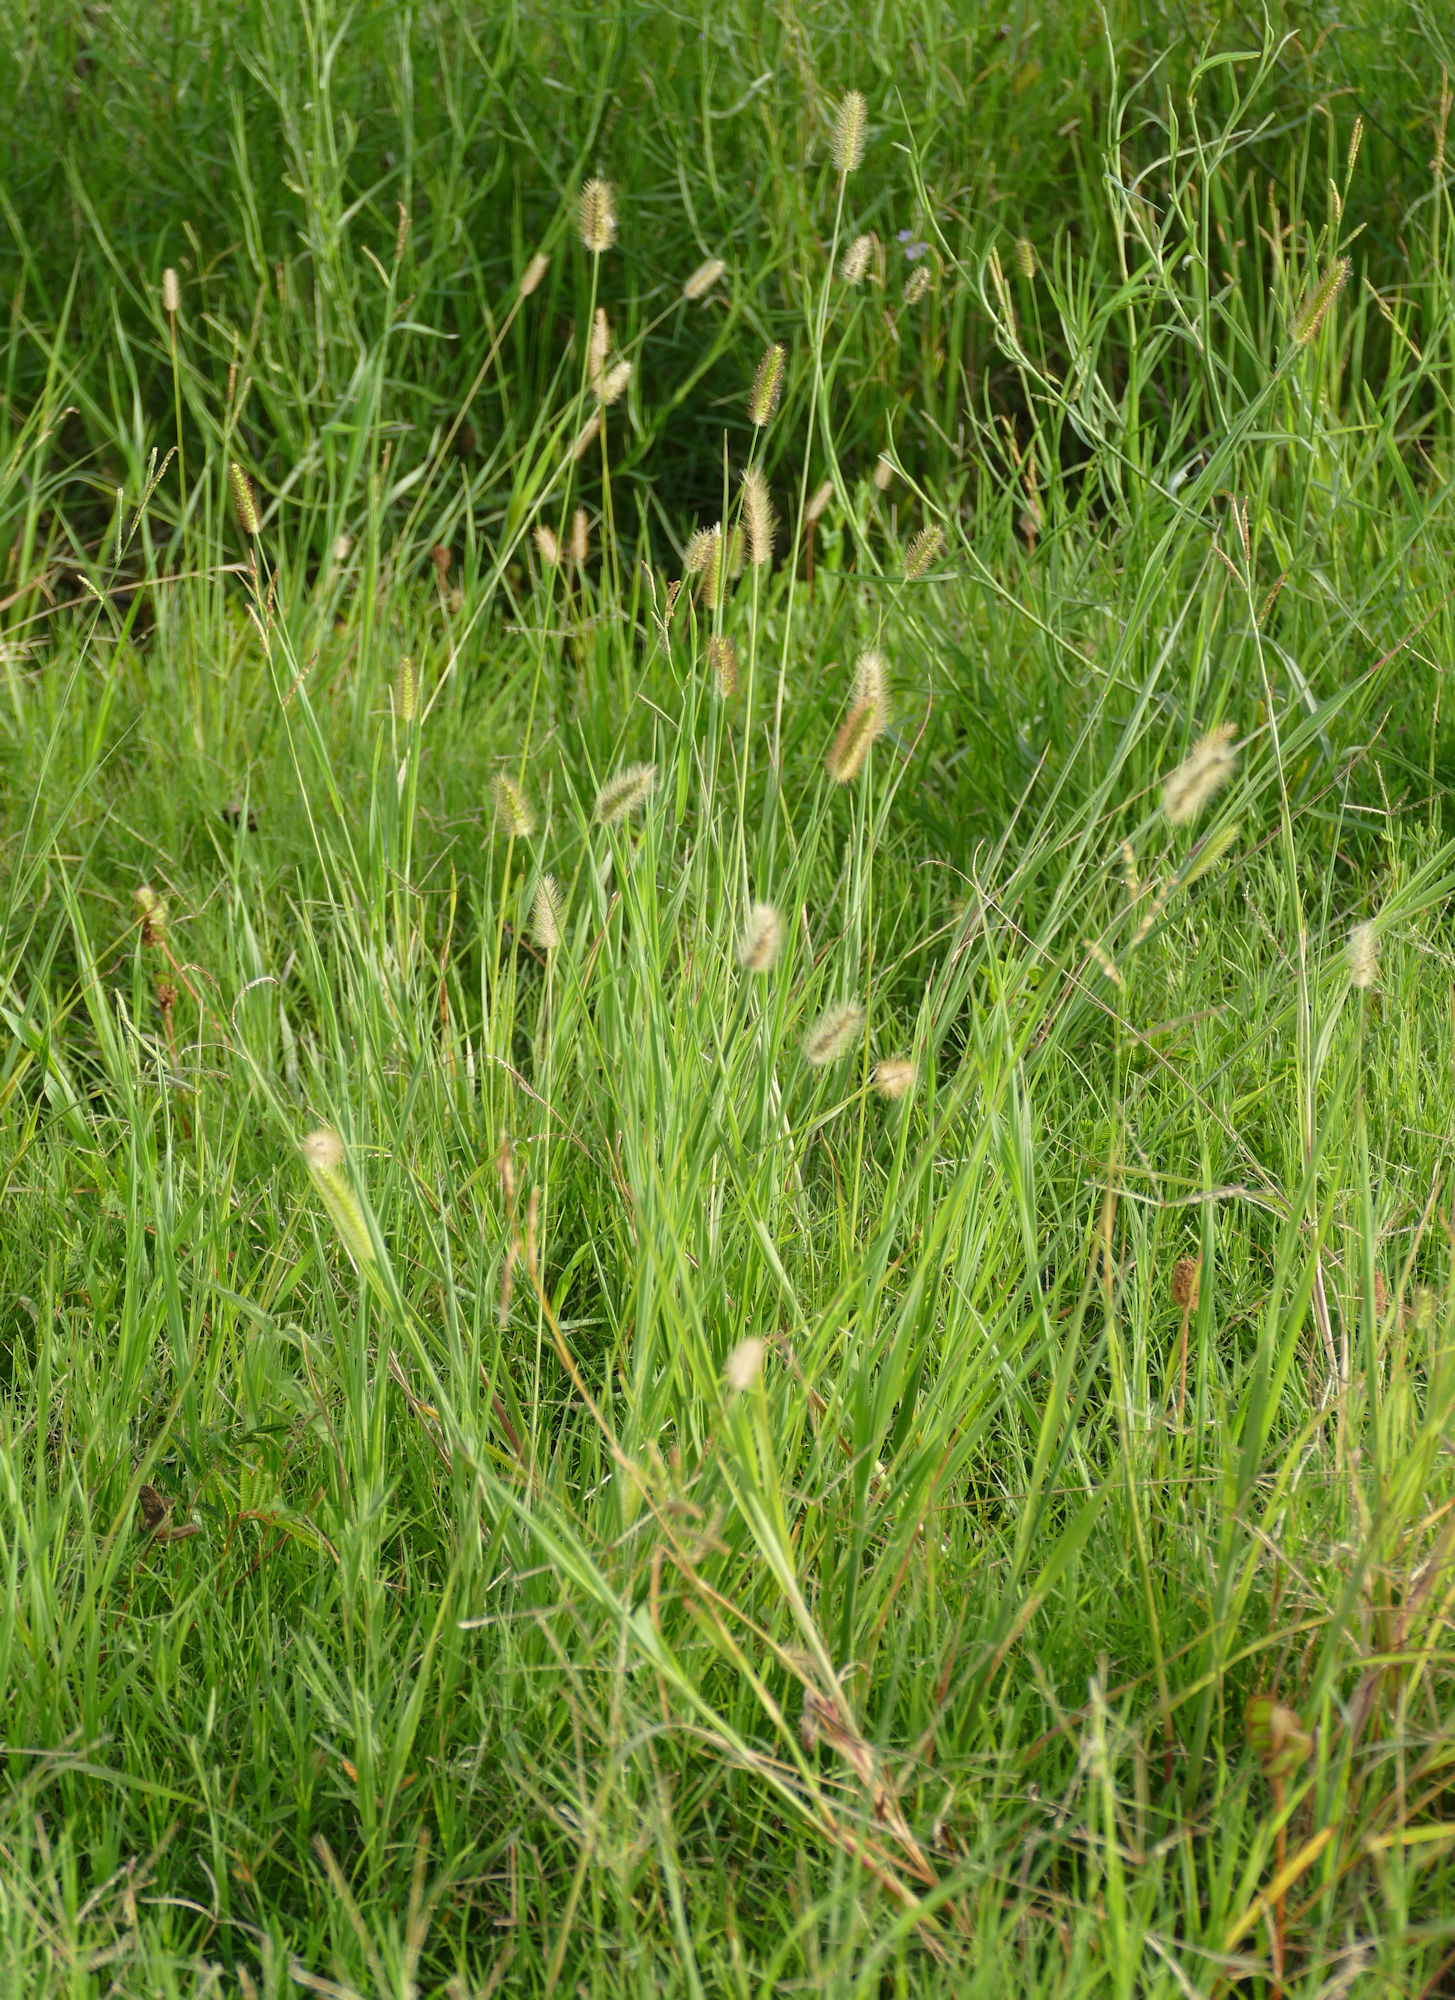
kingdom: Plantae
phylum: Tracheophyta
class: Liliopsida
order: Poales
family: Poaceae
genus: Setaria
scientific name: Setaria parviflora
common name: Knotroot bristle-grass
